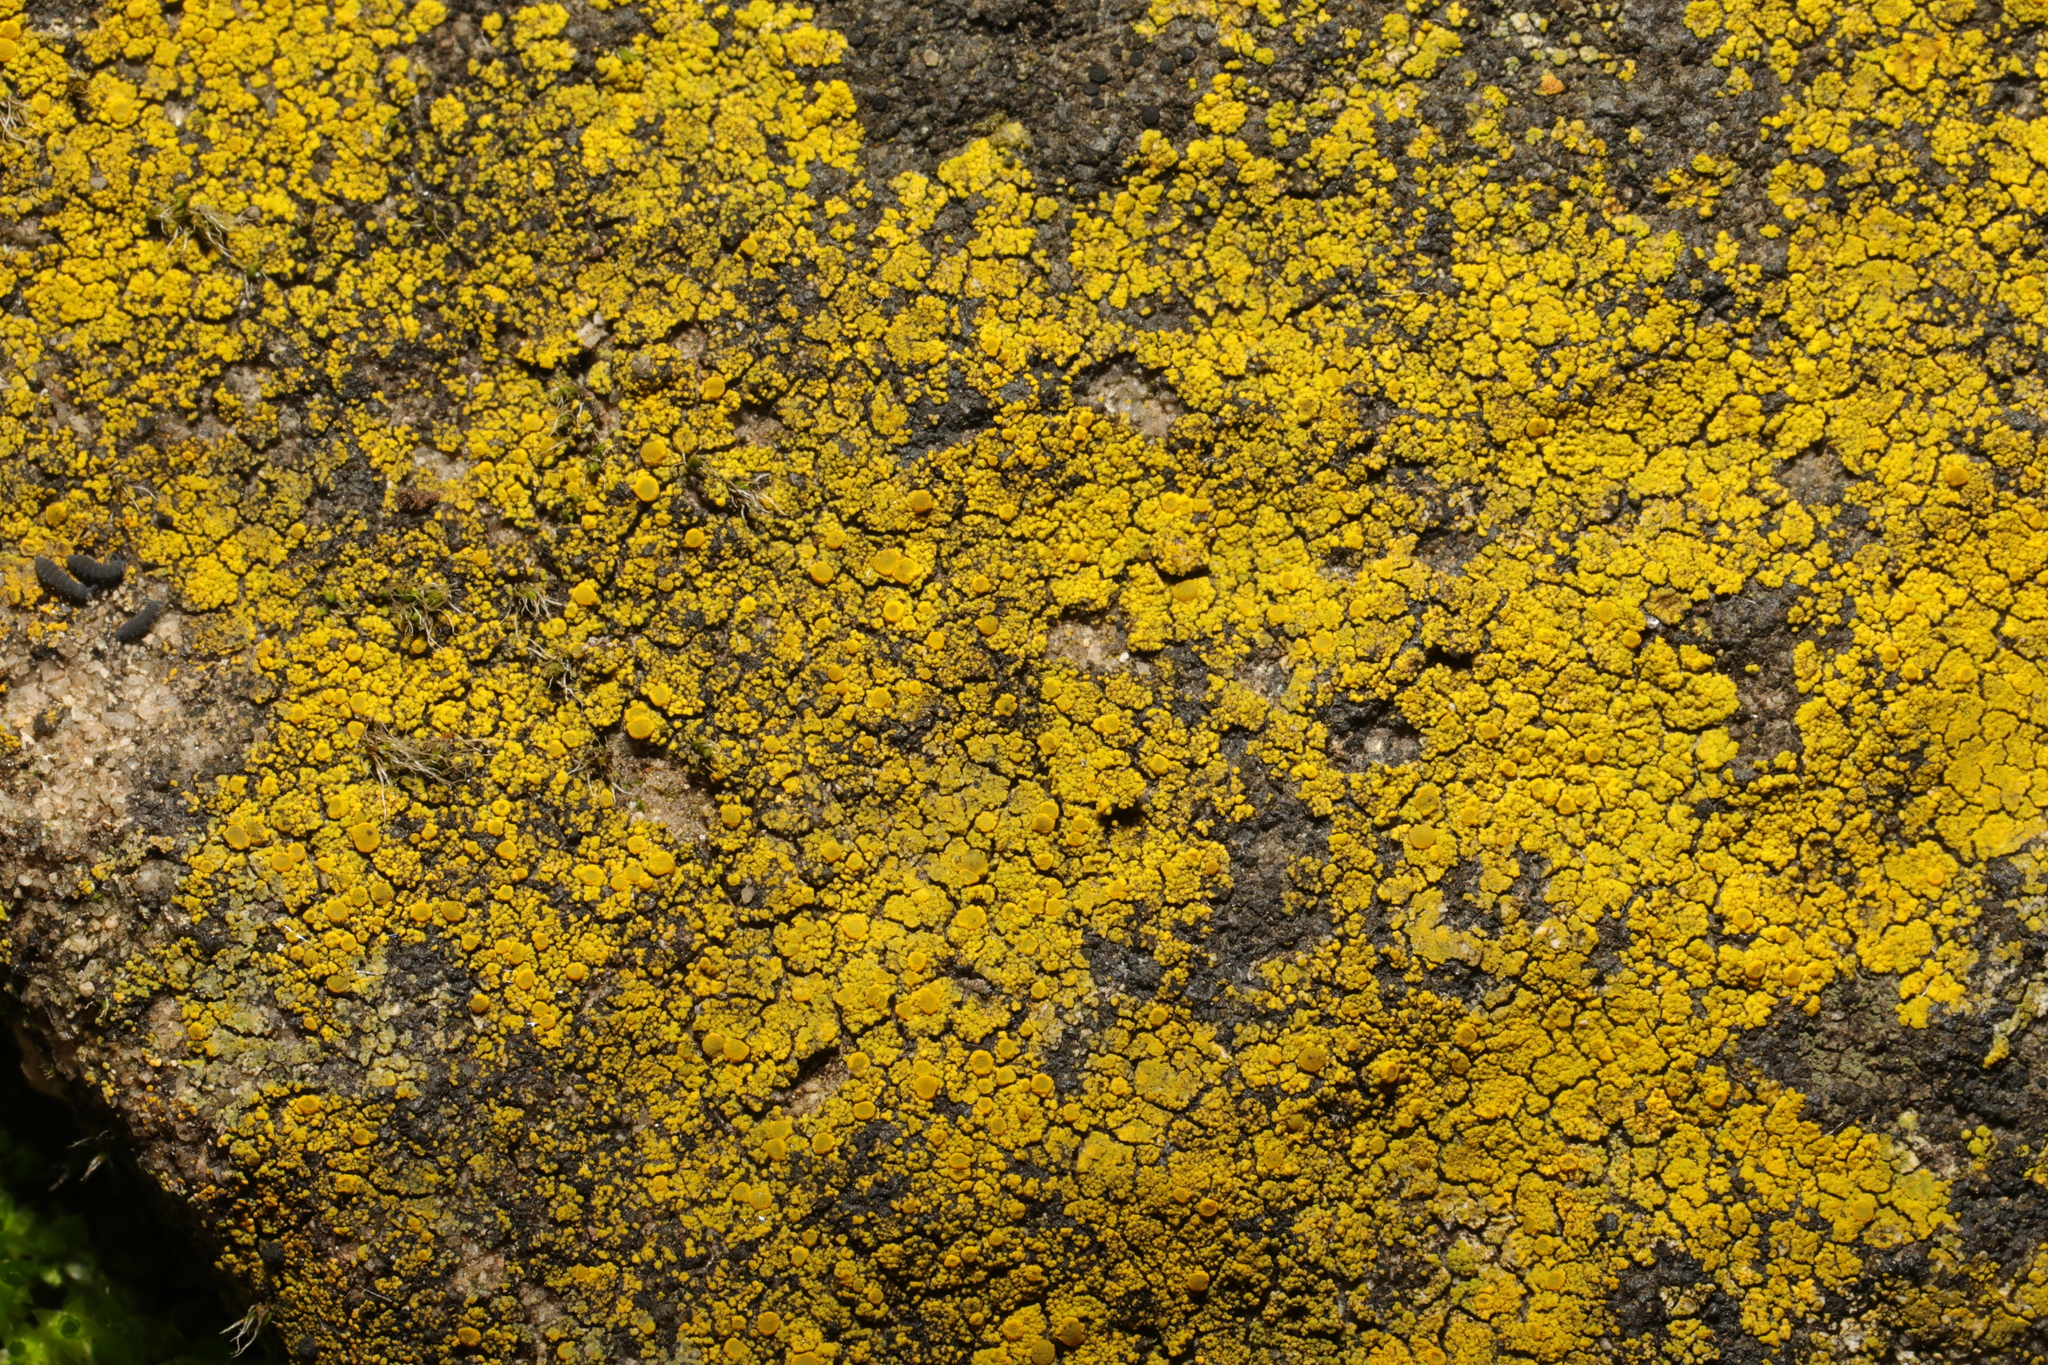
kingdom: Fungi
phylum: Ascomycota
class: Candelariomycetes
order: Candelariales
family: Candelariaceae
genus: Candelariella
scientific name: Candelariella vitellina
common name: Common goldspeck
